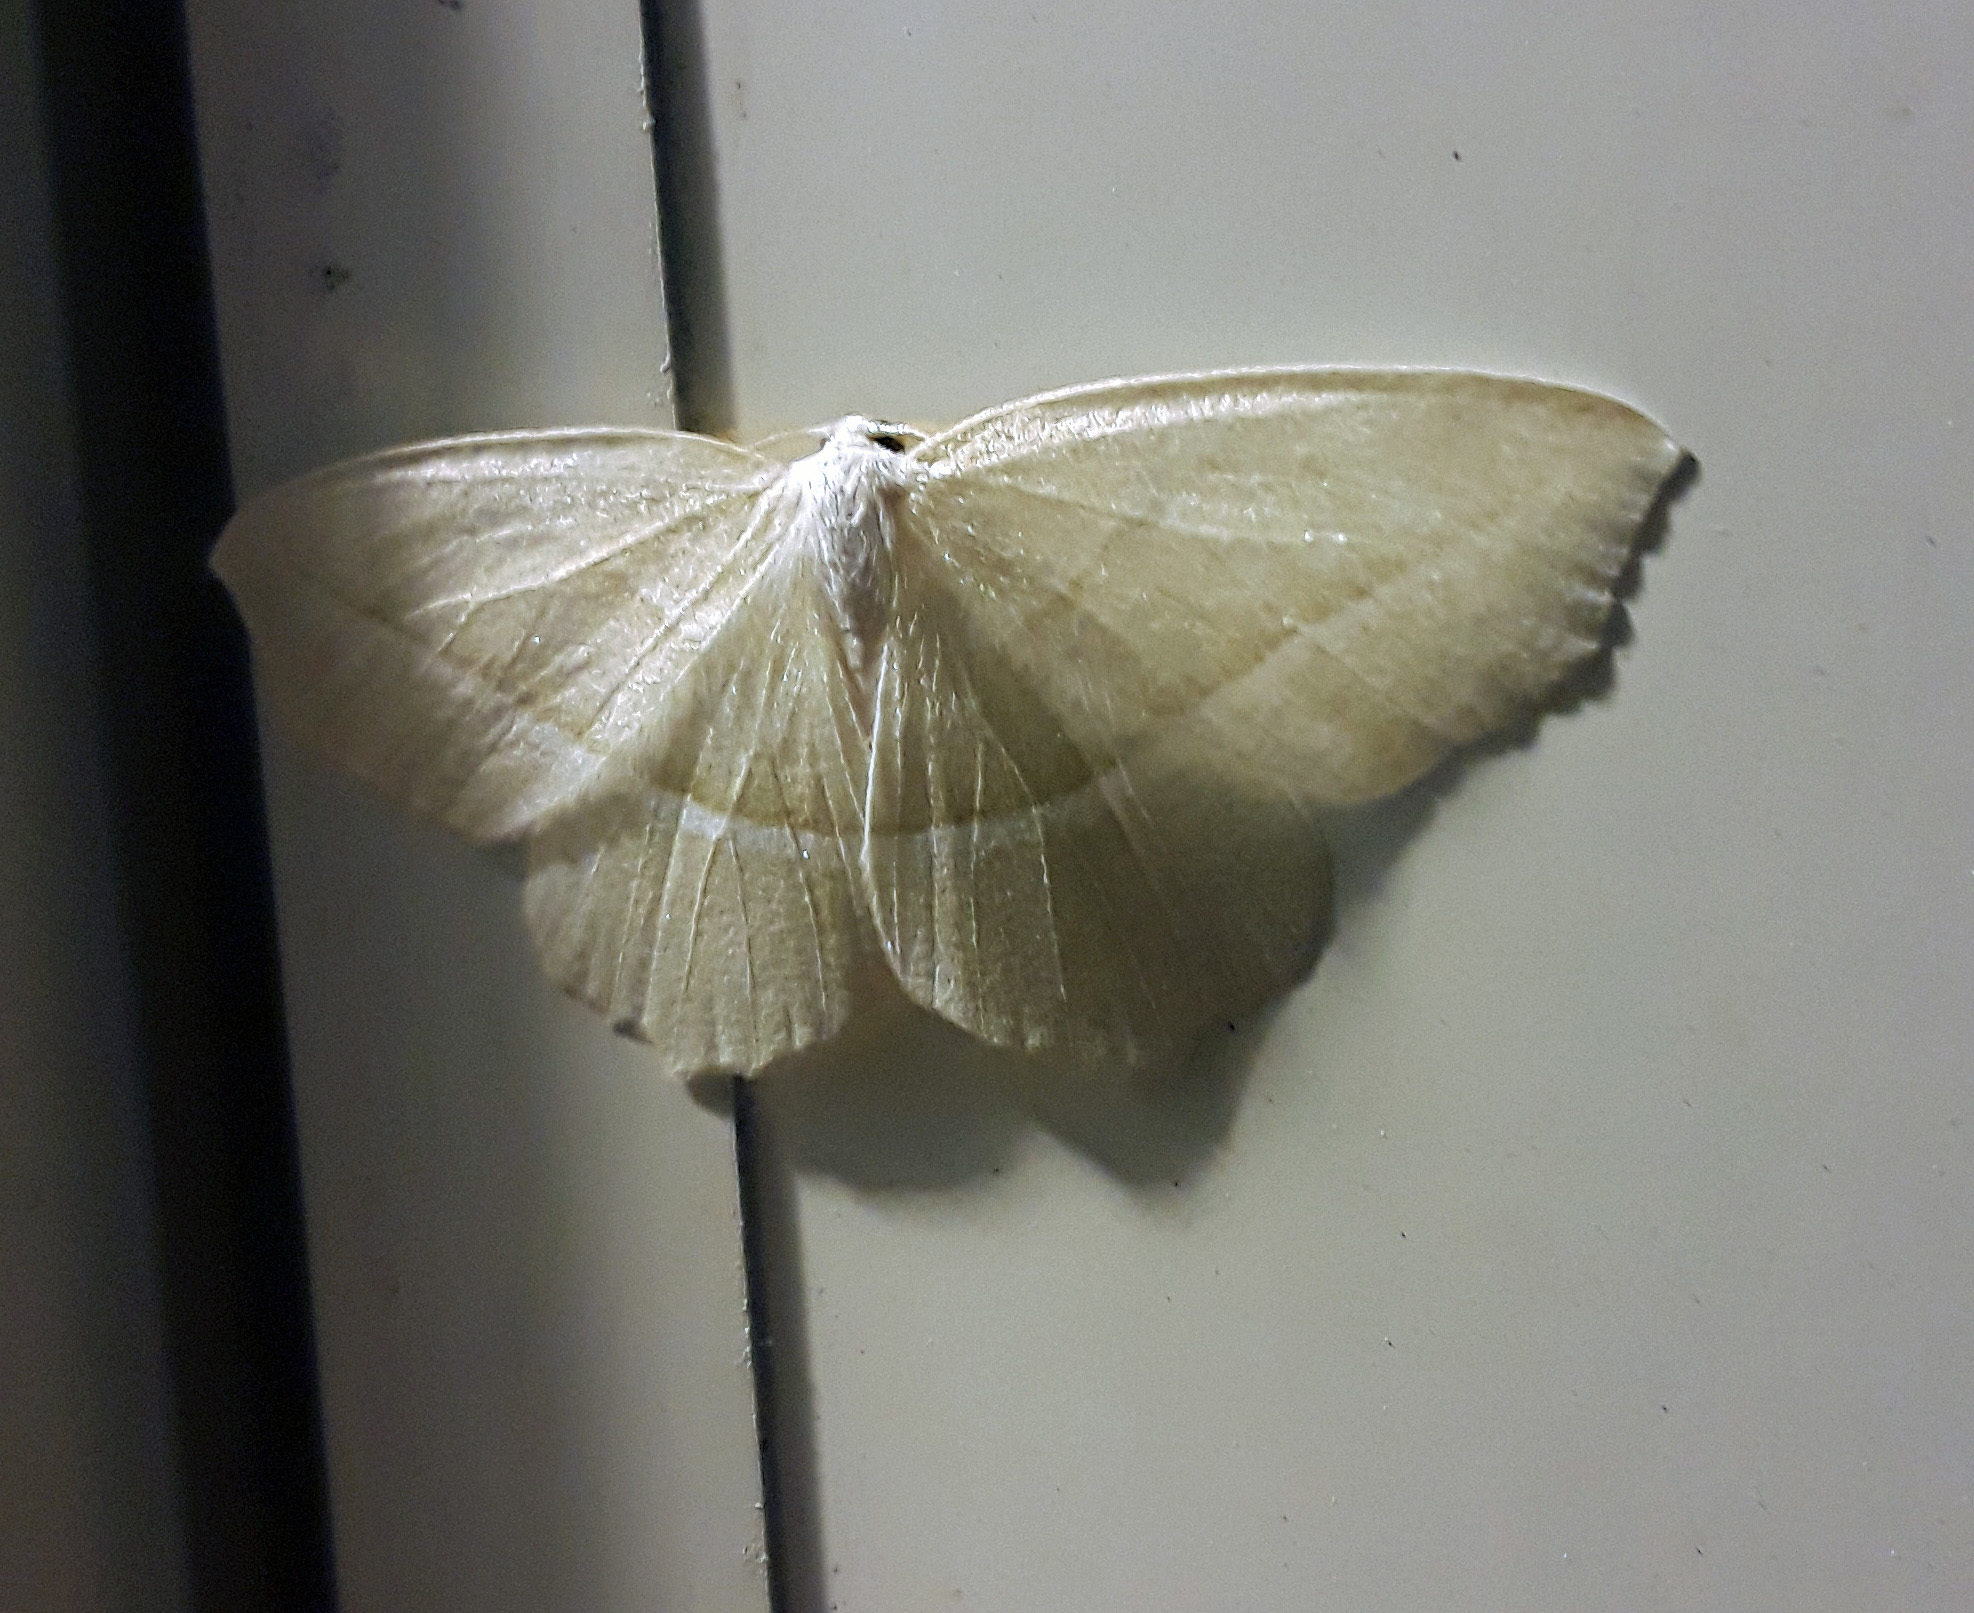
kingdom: Animalia
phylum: Arthropoda
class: Insecta
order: Lepidoptera
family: Geometridae
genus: Campaea
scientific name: Campaea perlata
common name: Fringed looper
